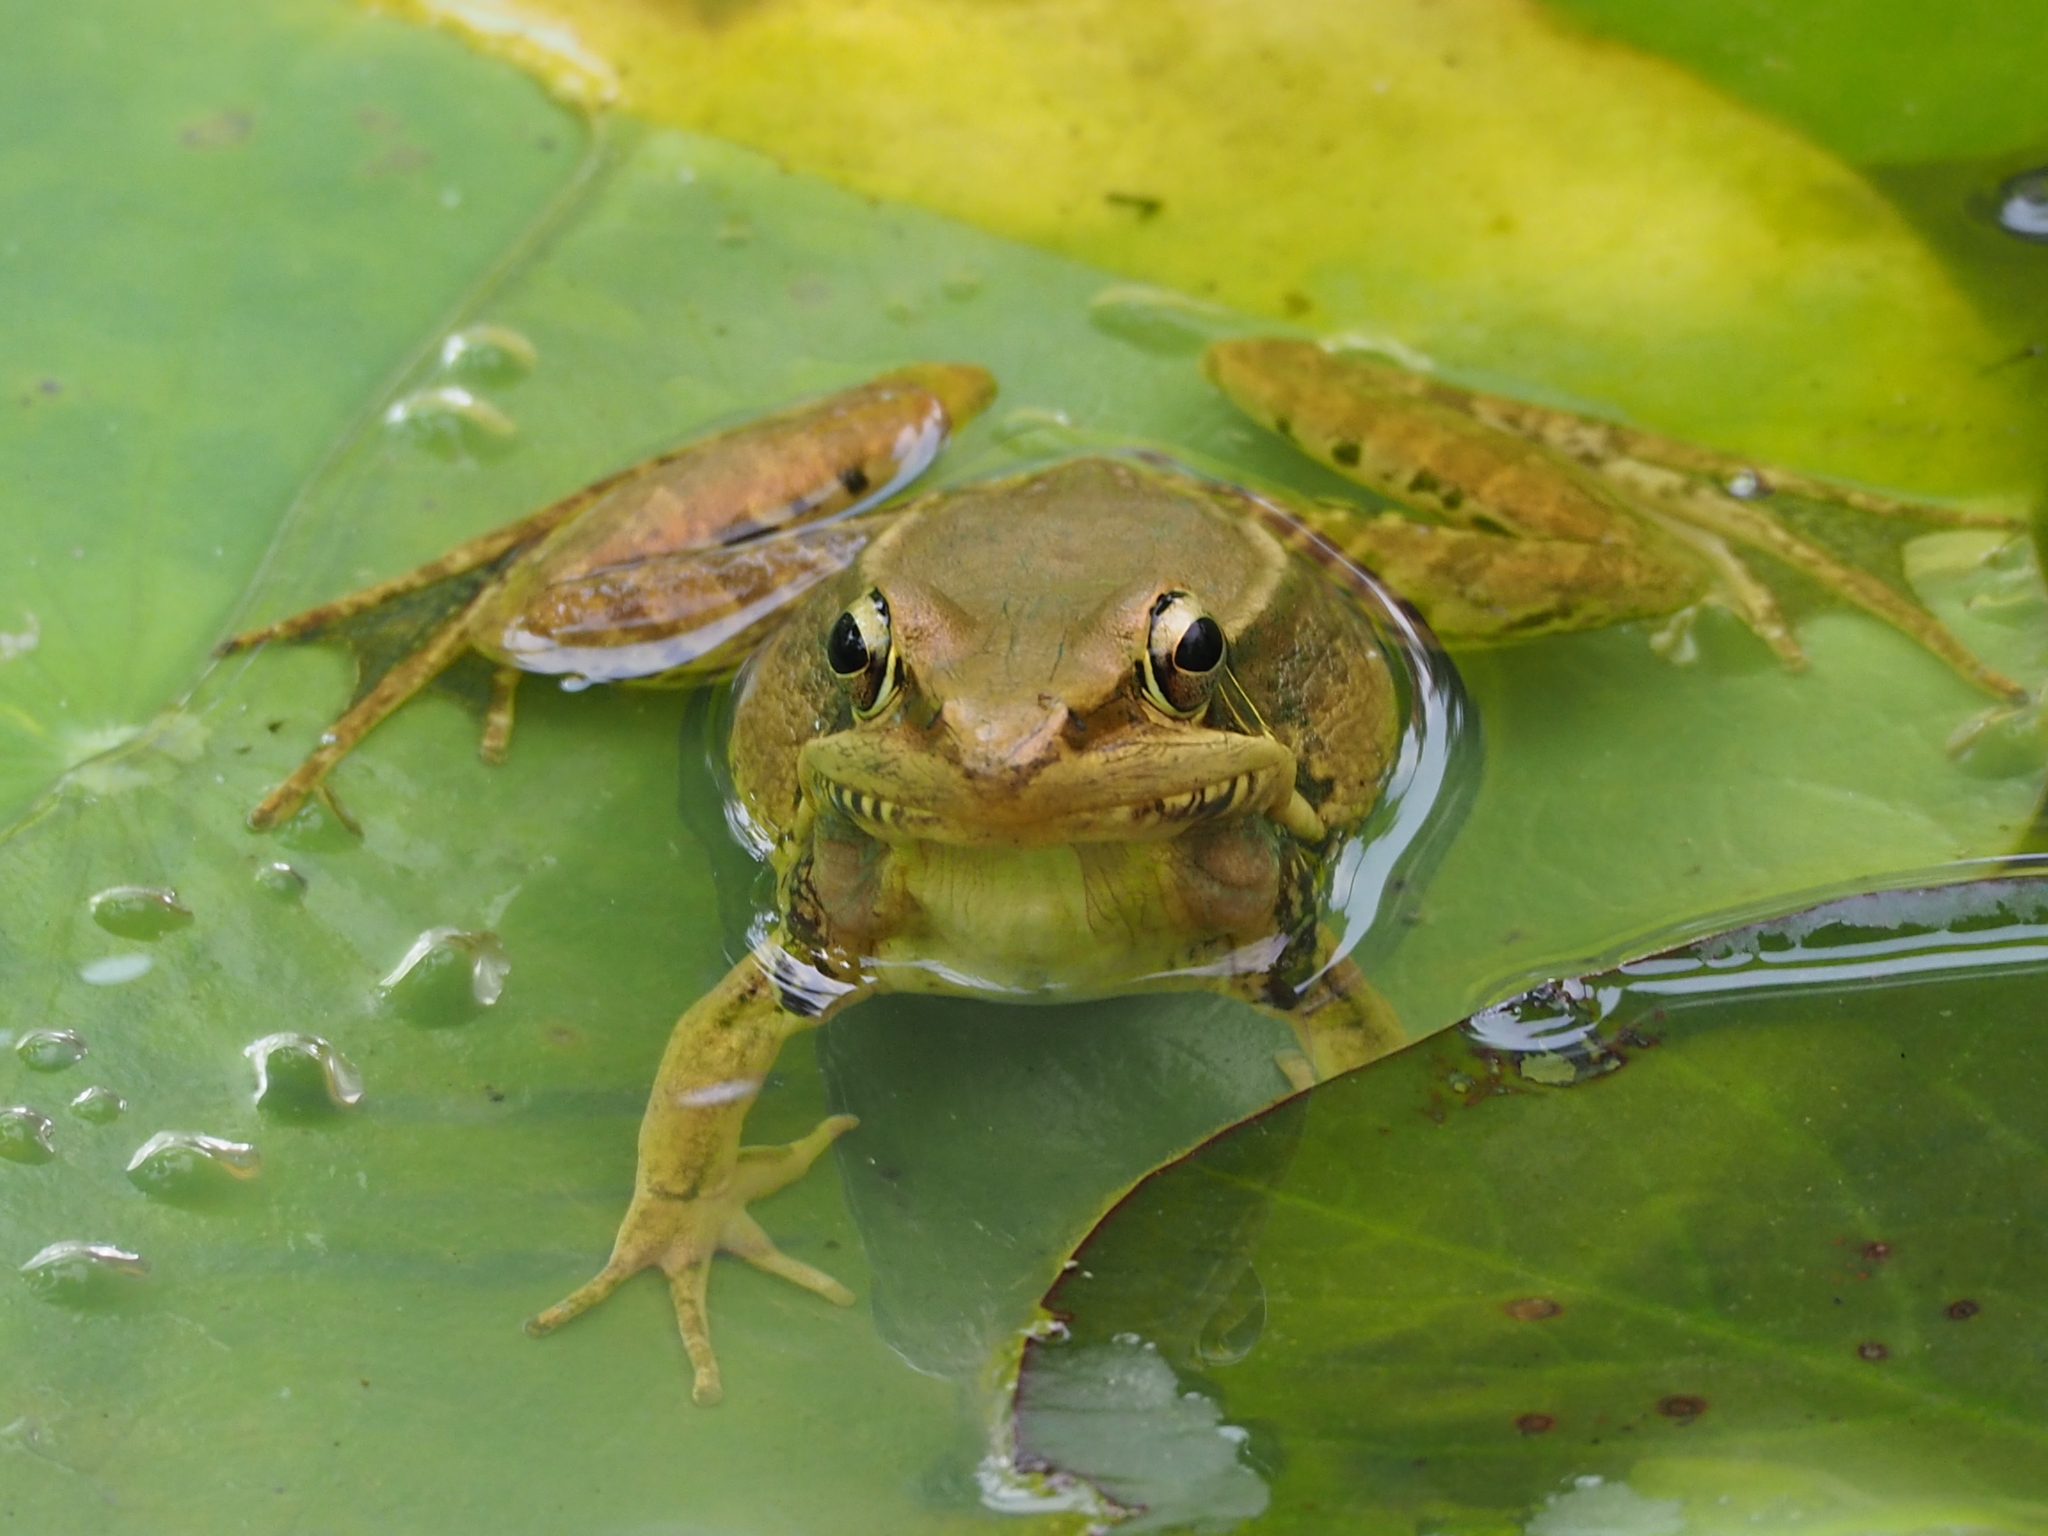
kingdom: Animalia
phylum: Chordata
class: Amphibia
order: Anura
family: Ranidae
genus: Sylvirana
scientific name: Sylvirana guentheri
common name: Guenther's amoy frog
